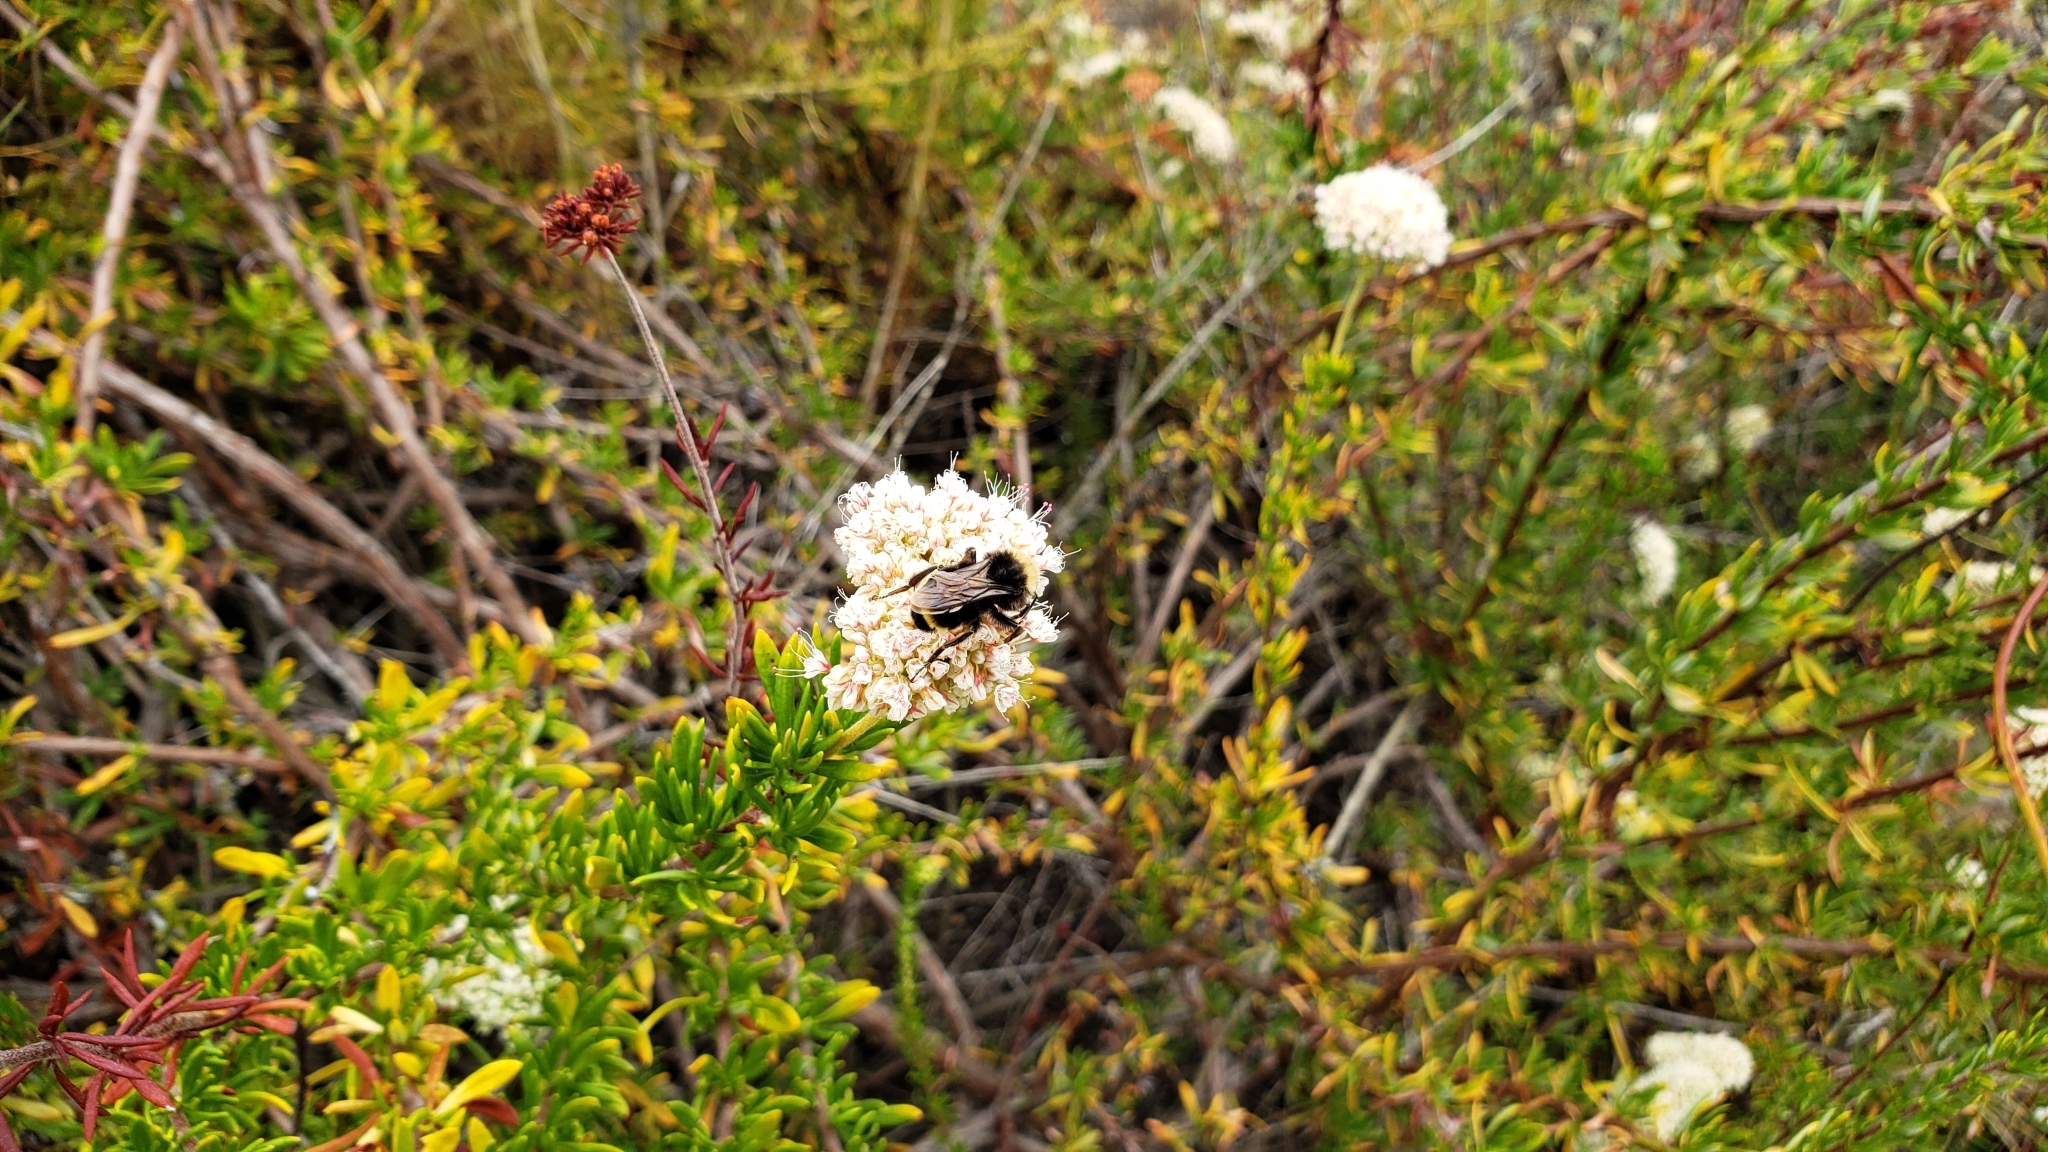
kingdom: Animalia
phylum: Arthropoda
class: Insecta
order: Hymenoptera
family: Apidae
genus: Bombus
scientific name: Bombus vosnesenskii
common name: Vosnesensky bumble bee
